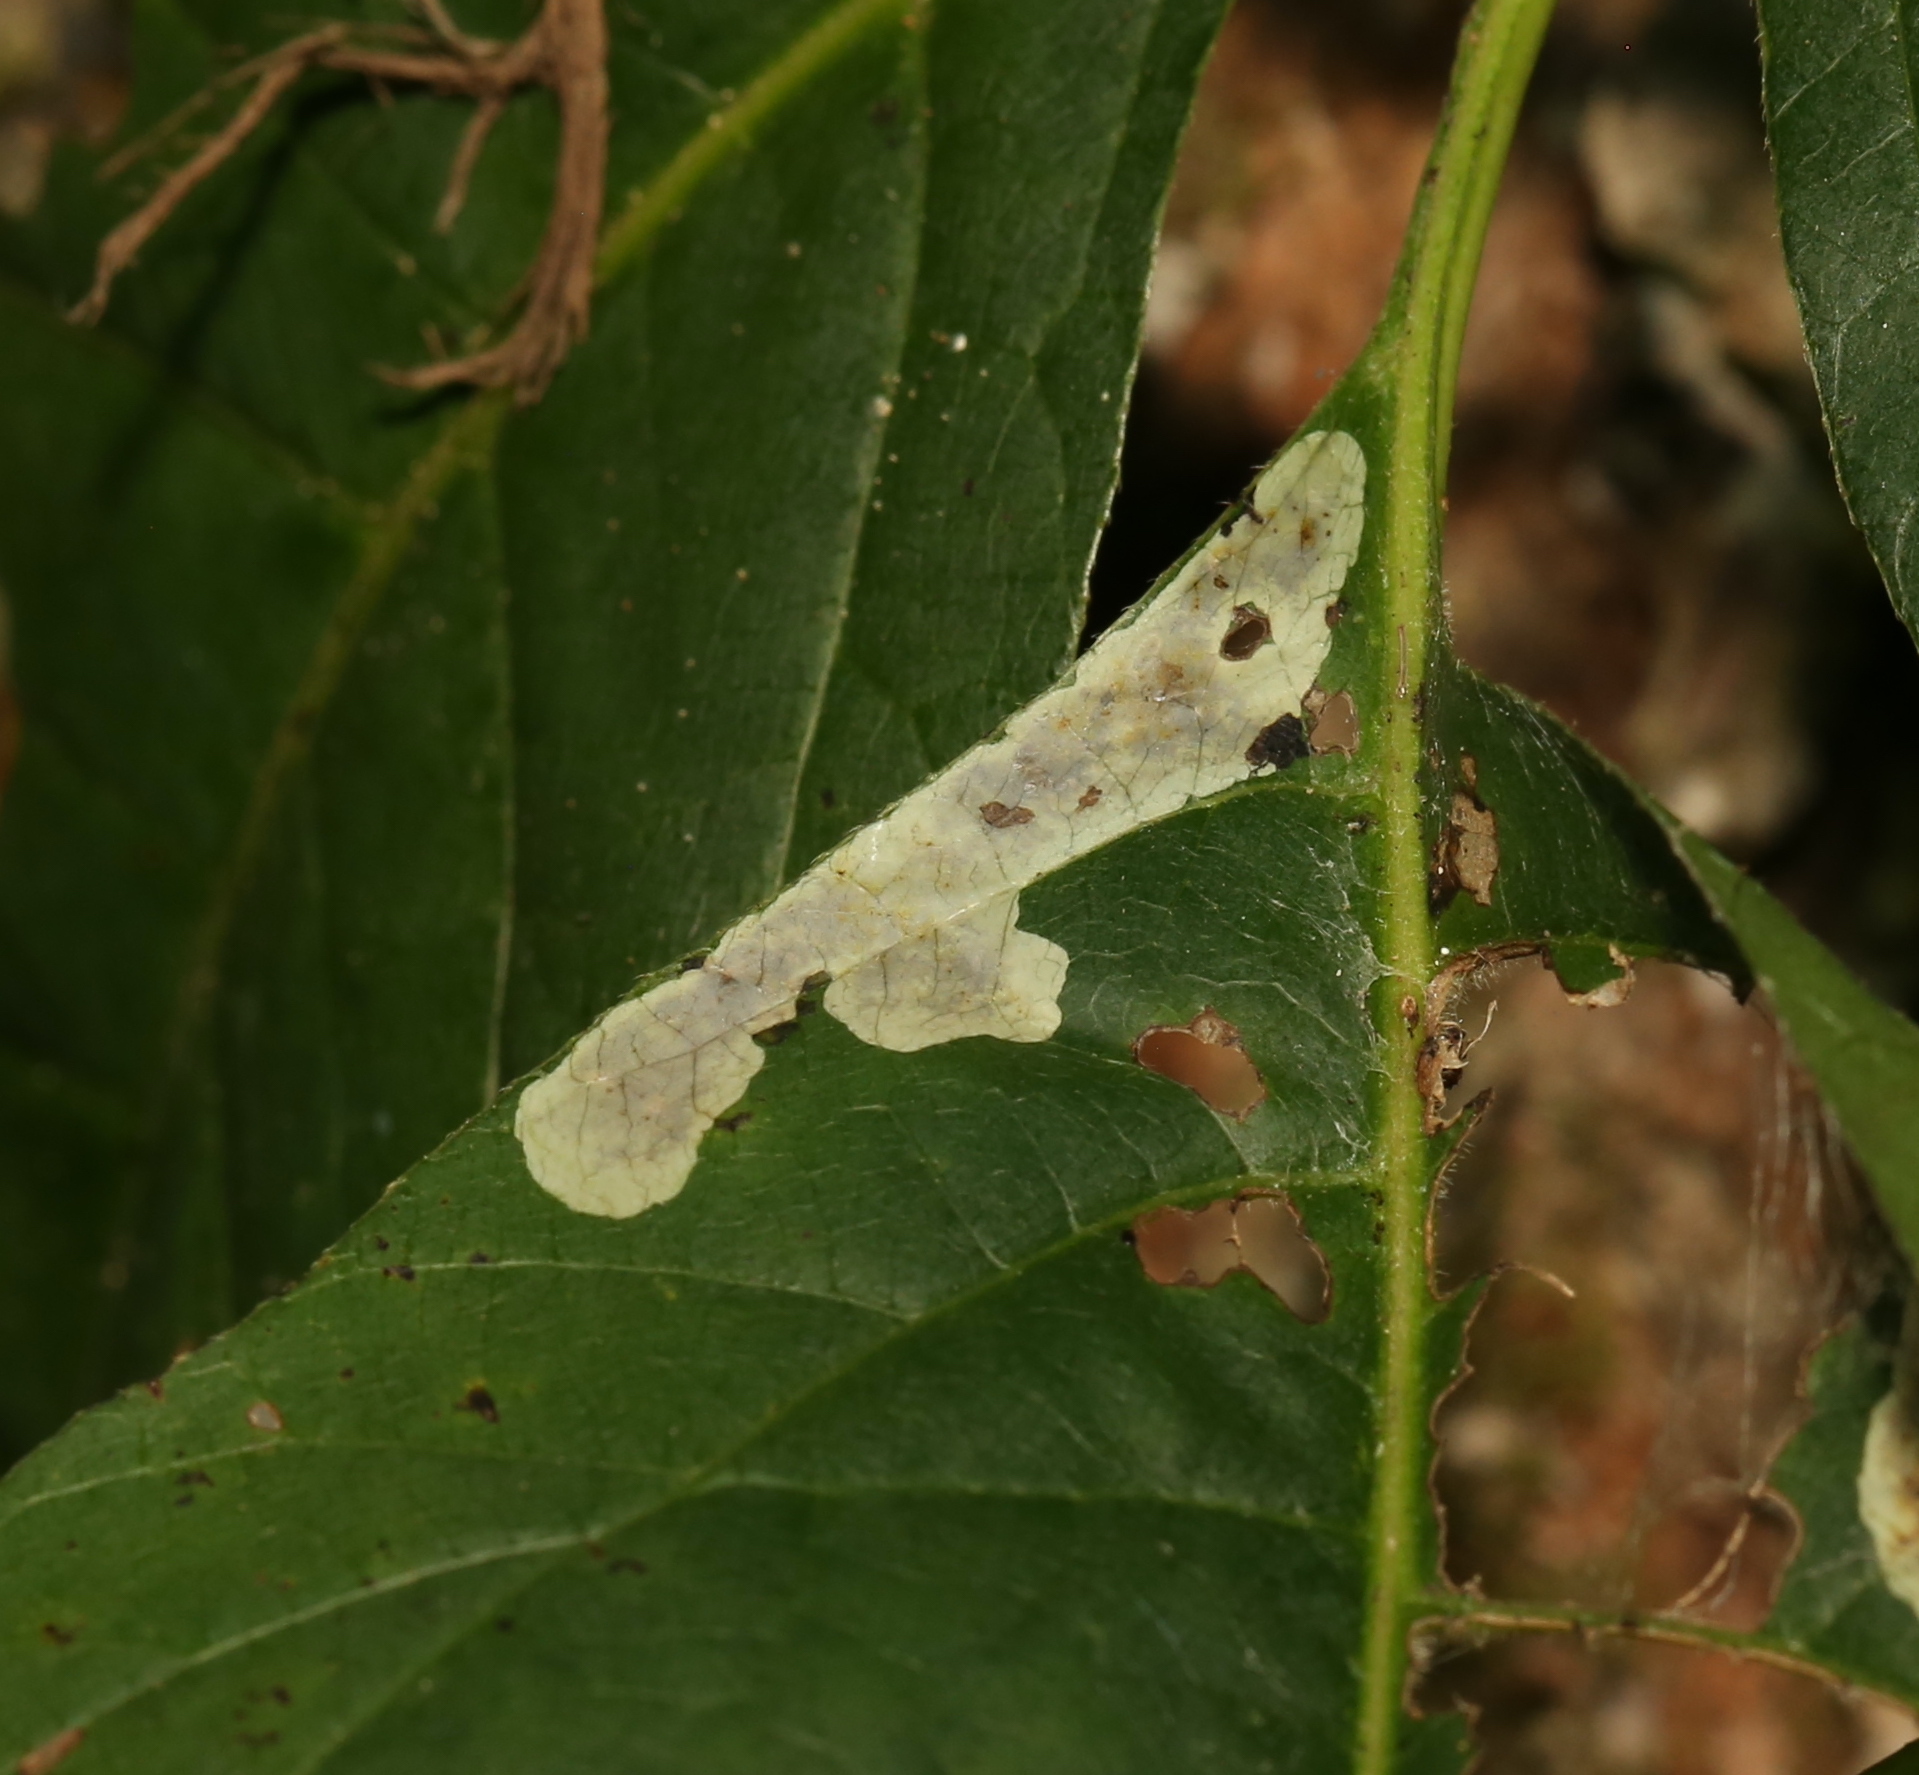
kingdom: Animalia
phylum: Arthropoda
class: Insecta
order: Lepidoptera
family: Gracillariidae
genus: Cameraria
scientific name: Cameraria guttifinitella
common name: Poison ivy leaf-miner moth
